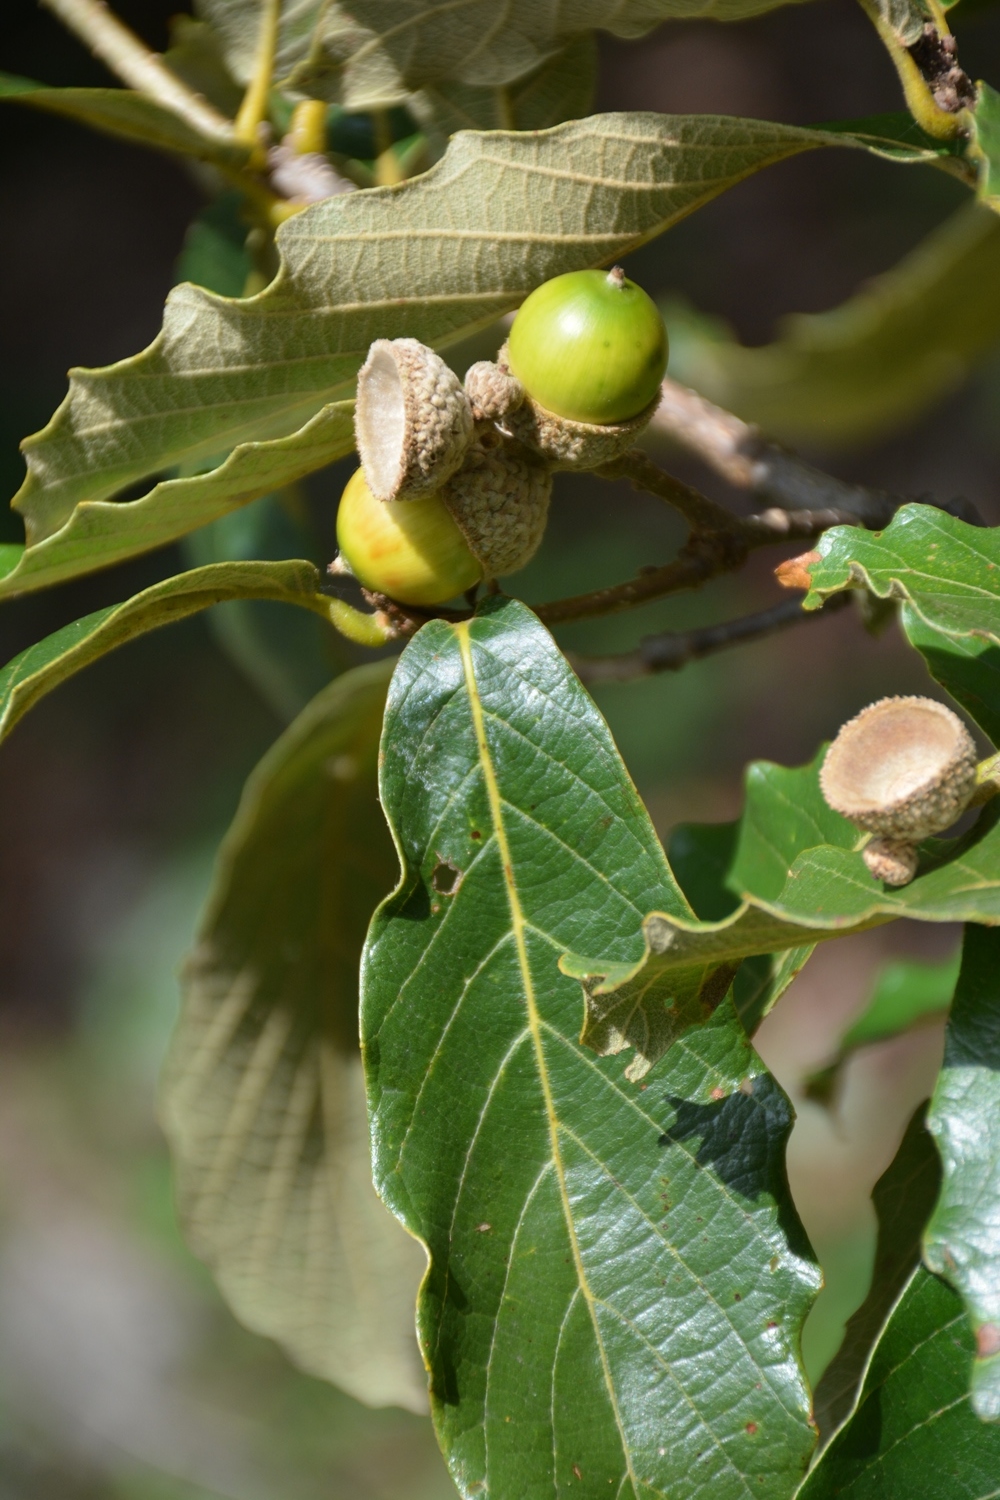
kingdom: Plantae
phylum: Tracheophyta
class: Magnoliopsida
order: Fagales
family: Fagaceae
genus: Quercus
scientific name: Quercus purulhana
